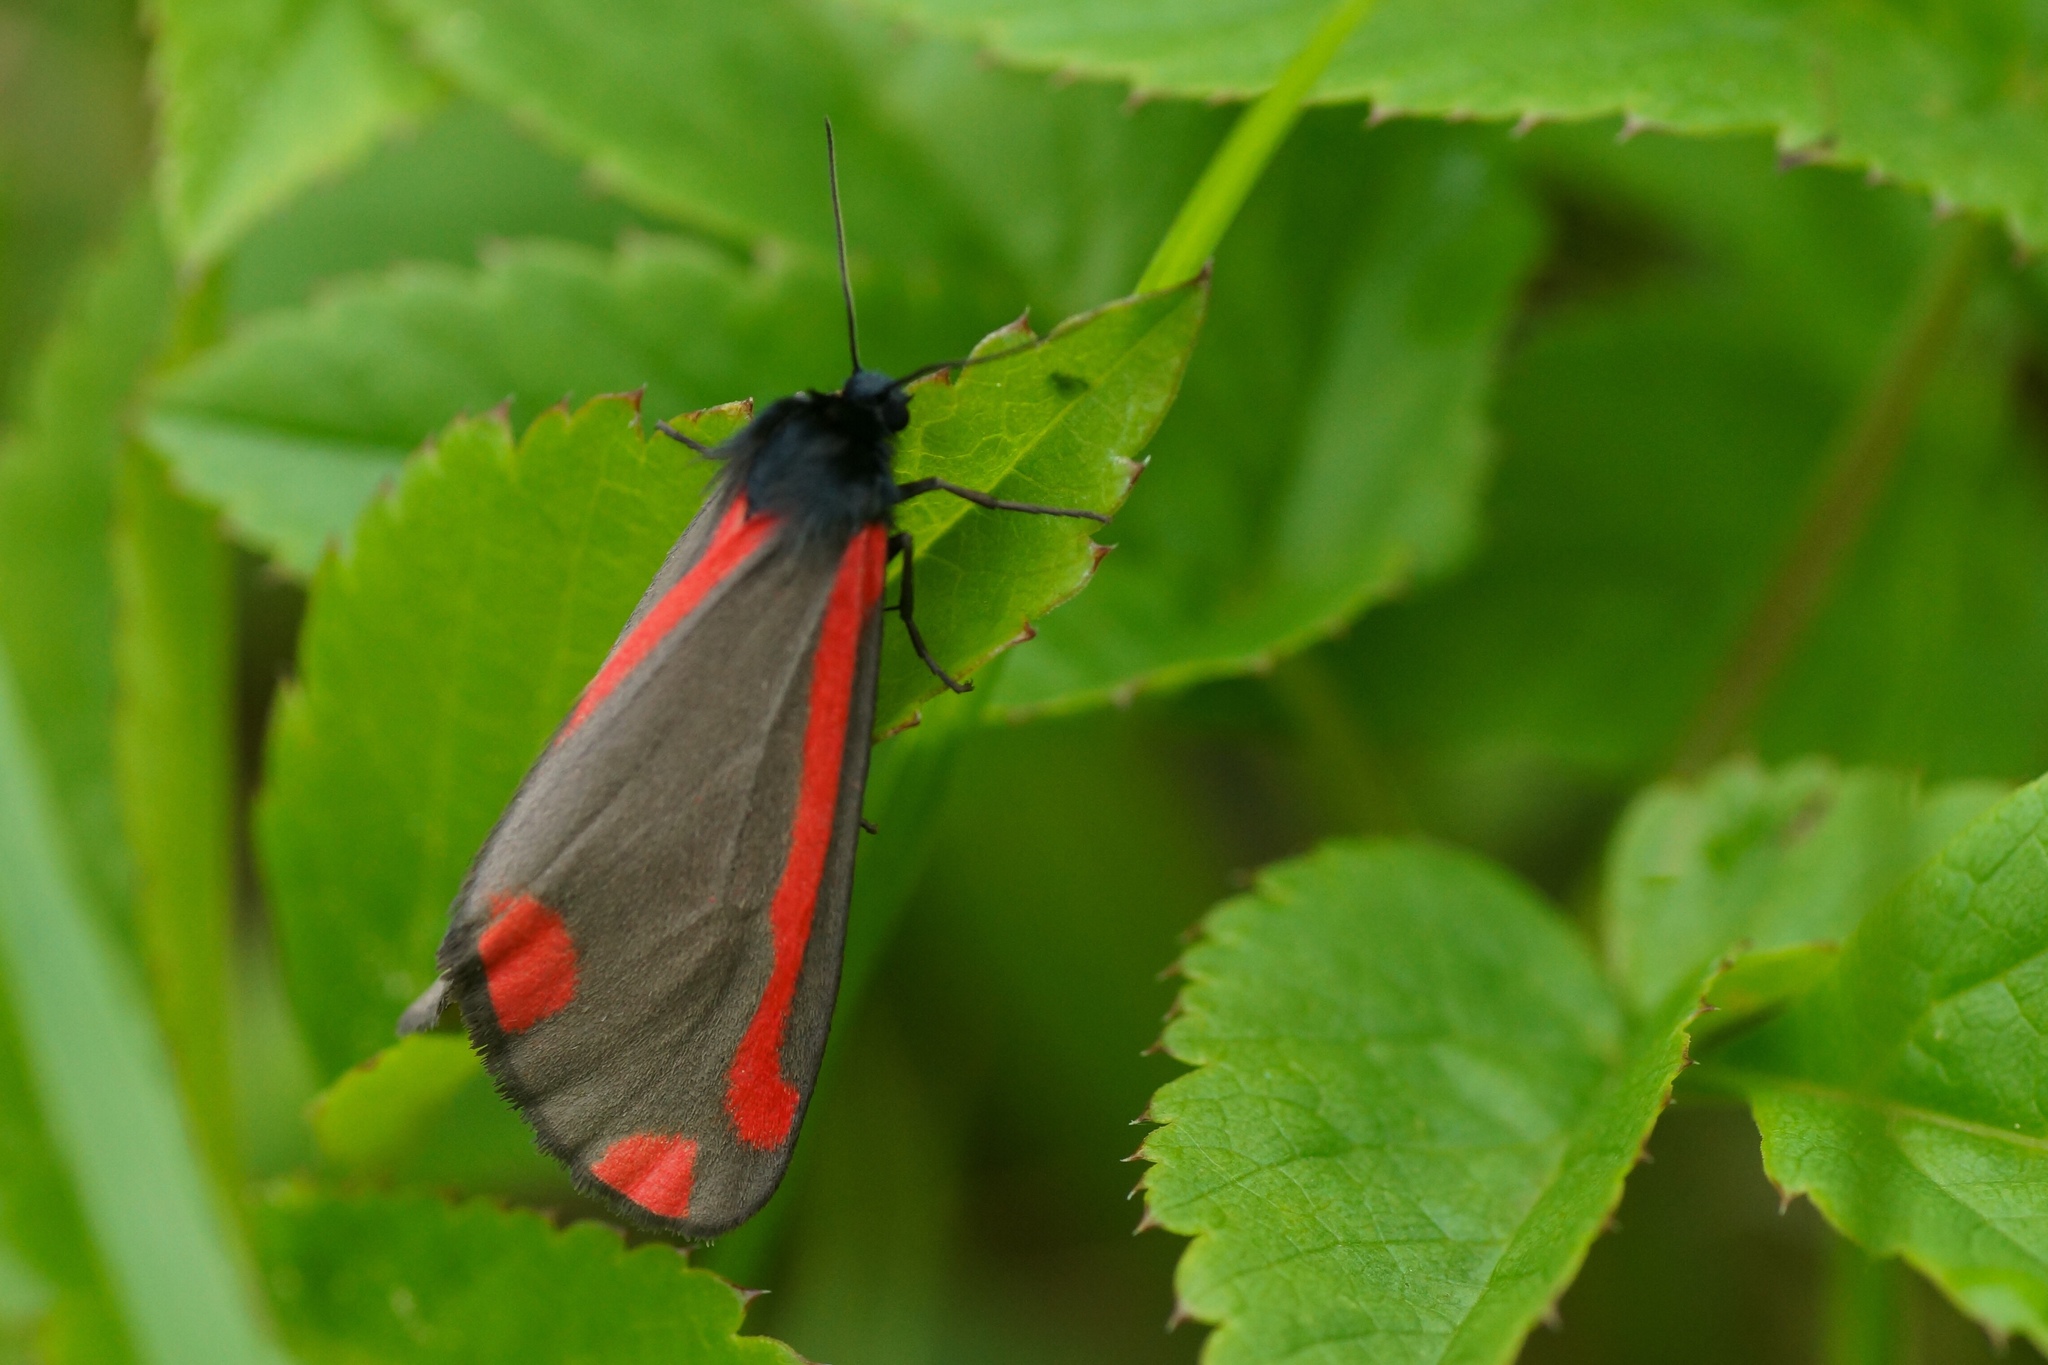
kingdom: Animalia
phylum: Arthropoda
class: Insecta
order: Lepidoptera
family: Erebidae
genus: Tyria
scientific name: Tyria jacobaeae
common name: Cinnabar
